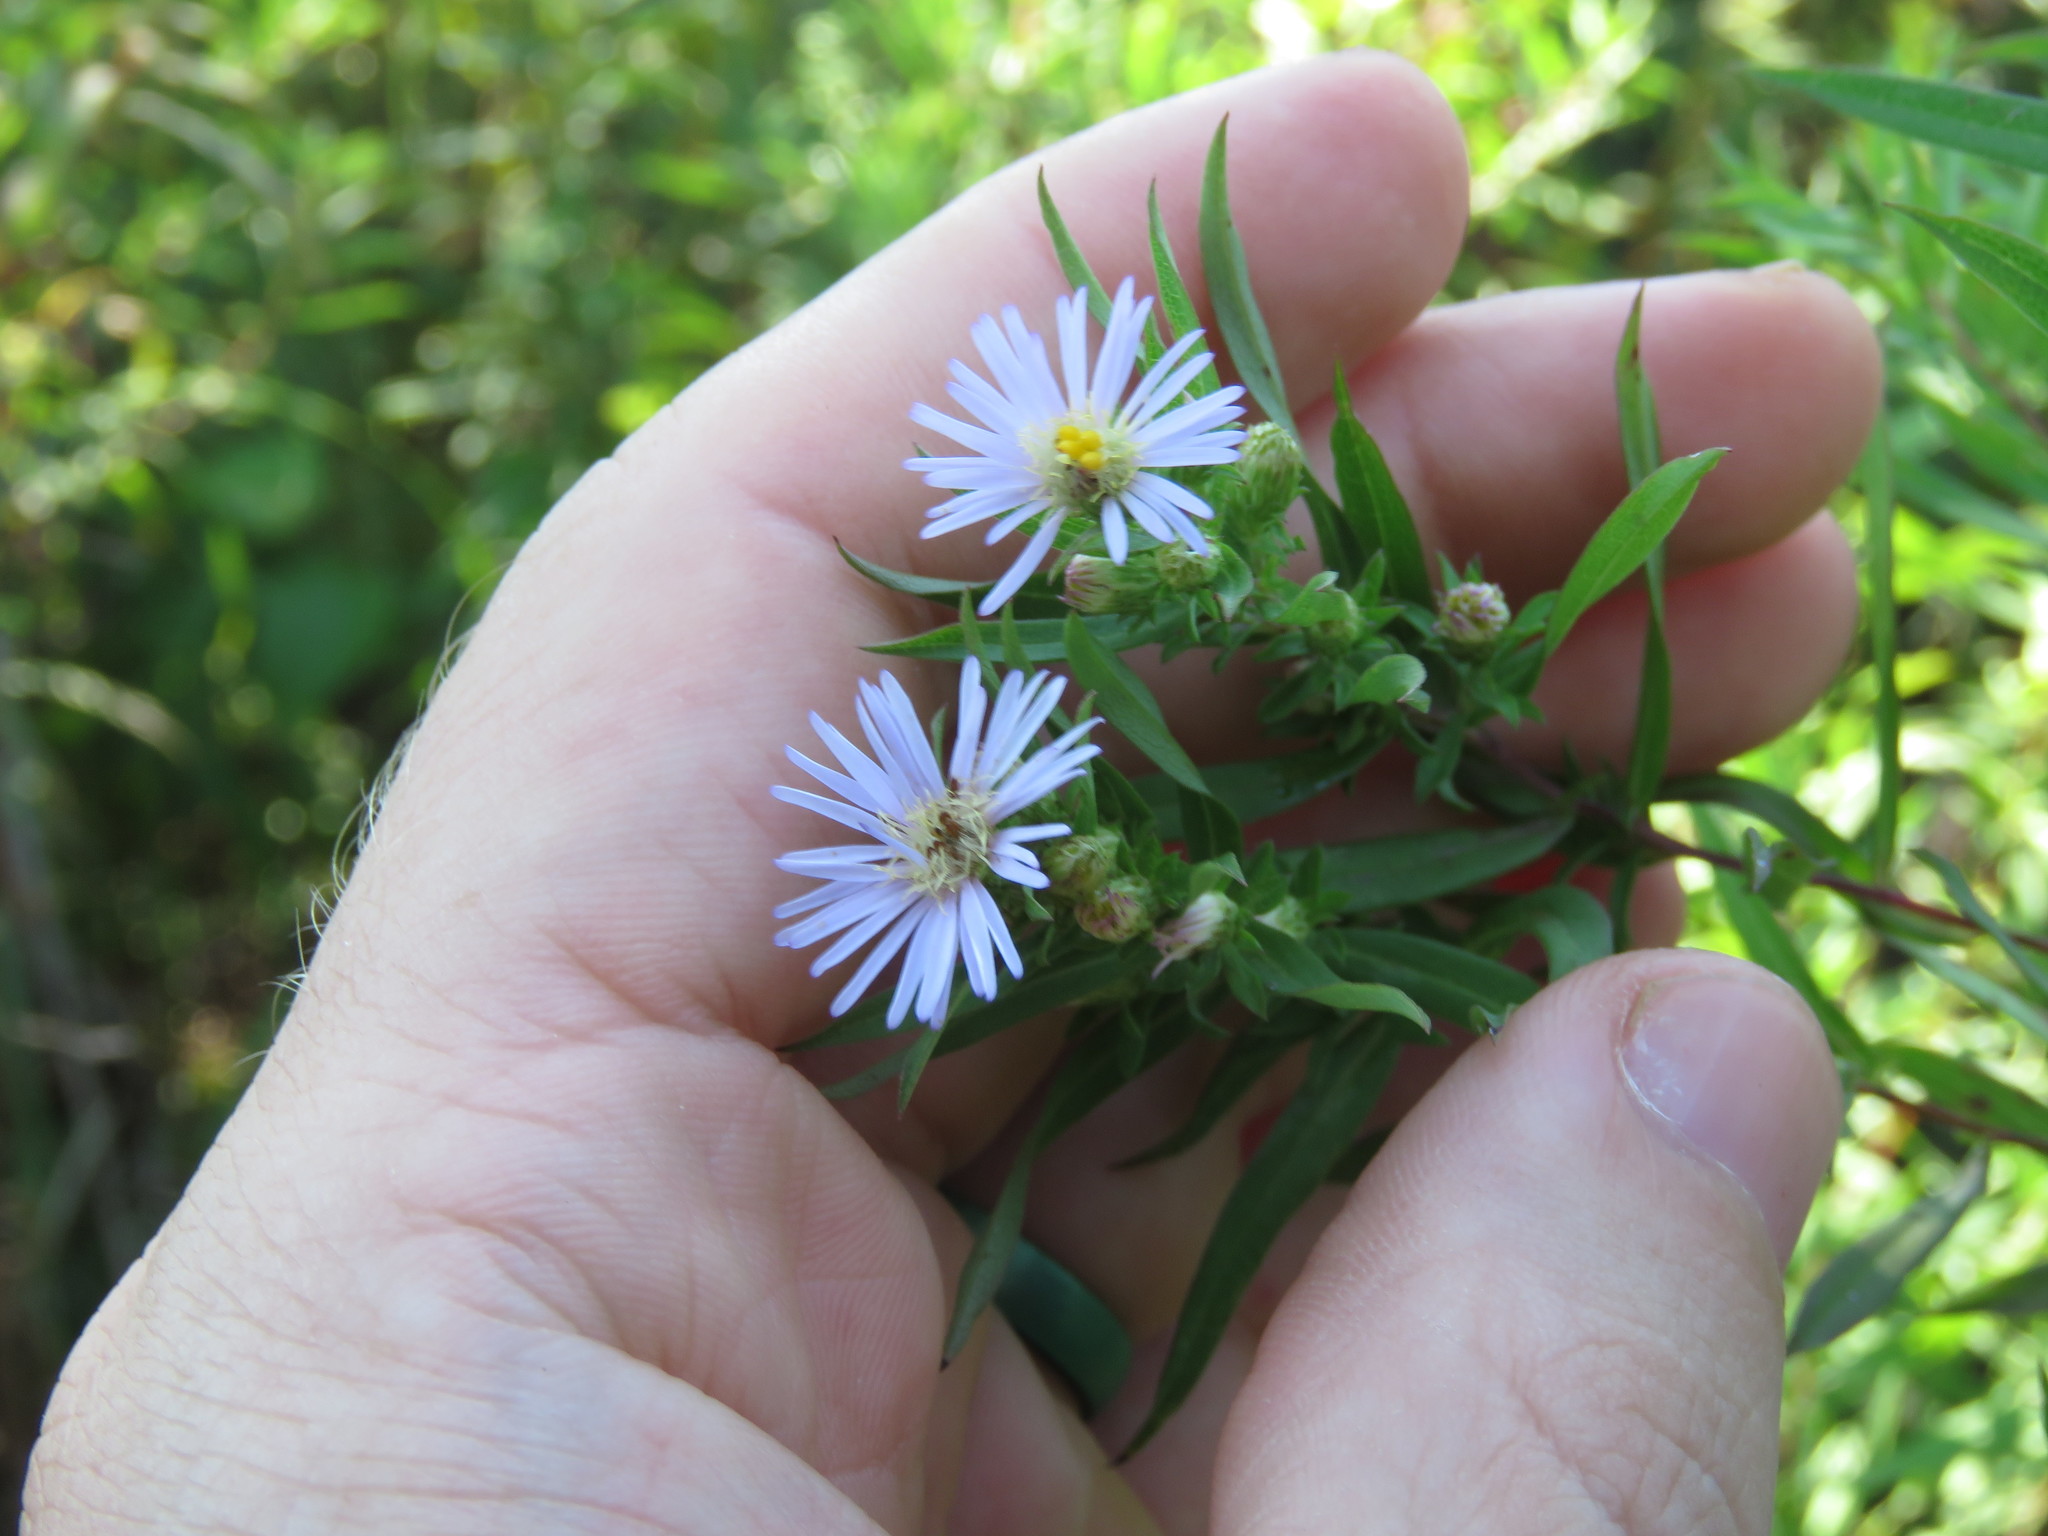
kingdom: Plantae
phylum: Tracheophyta
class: Magnoliopsida
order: Asterales
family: Asteraceae
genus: Symphyotrichum
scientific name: Symphyotrichum praealtum
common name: Willow aster
